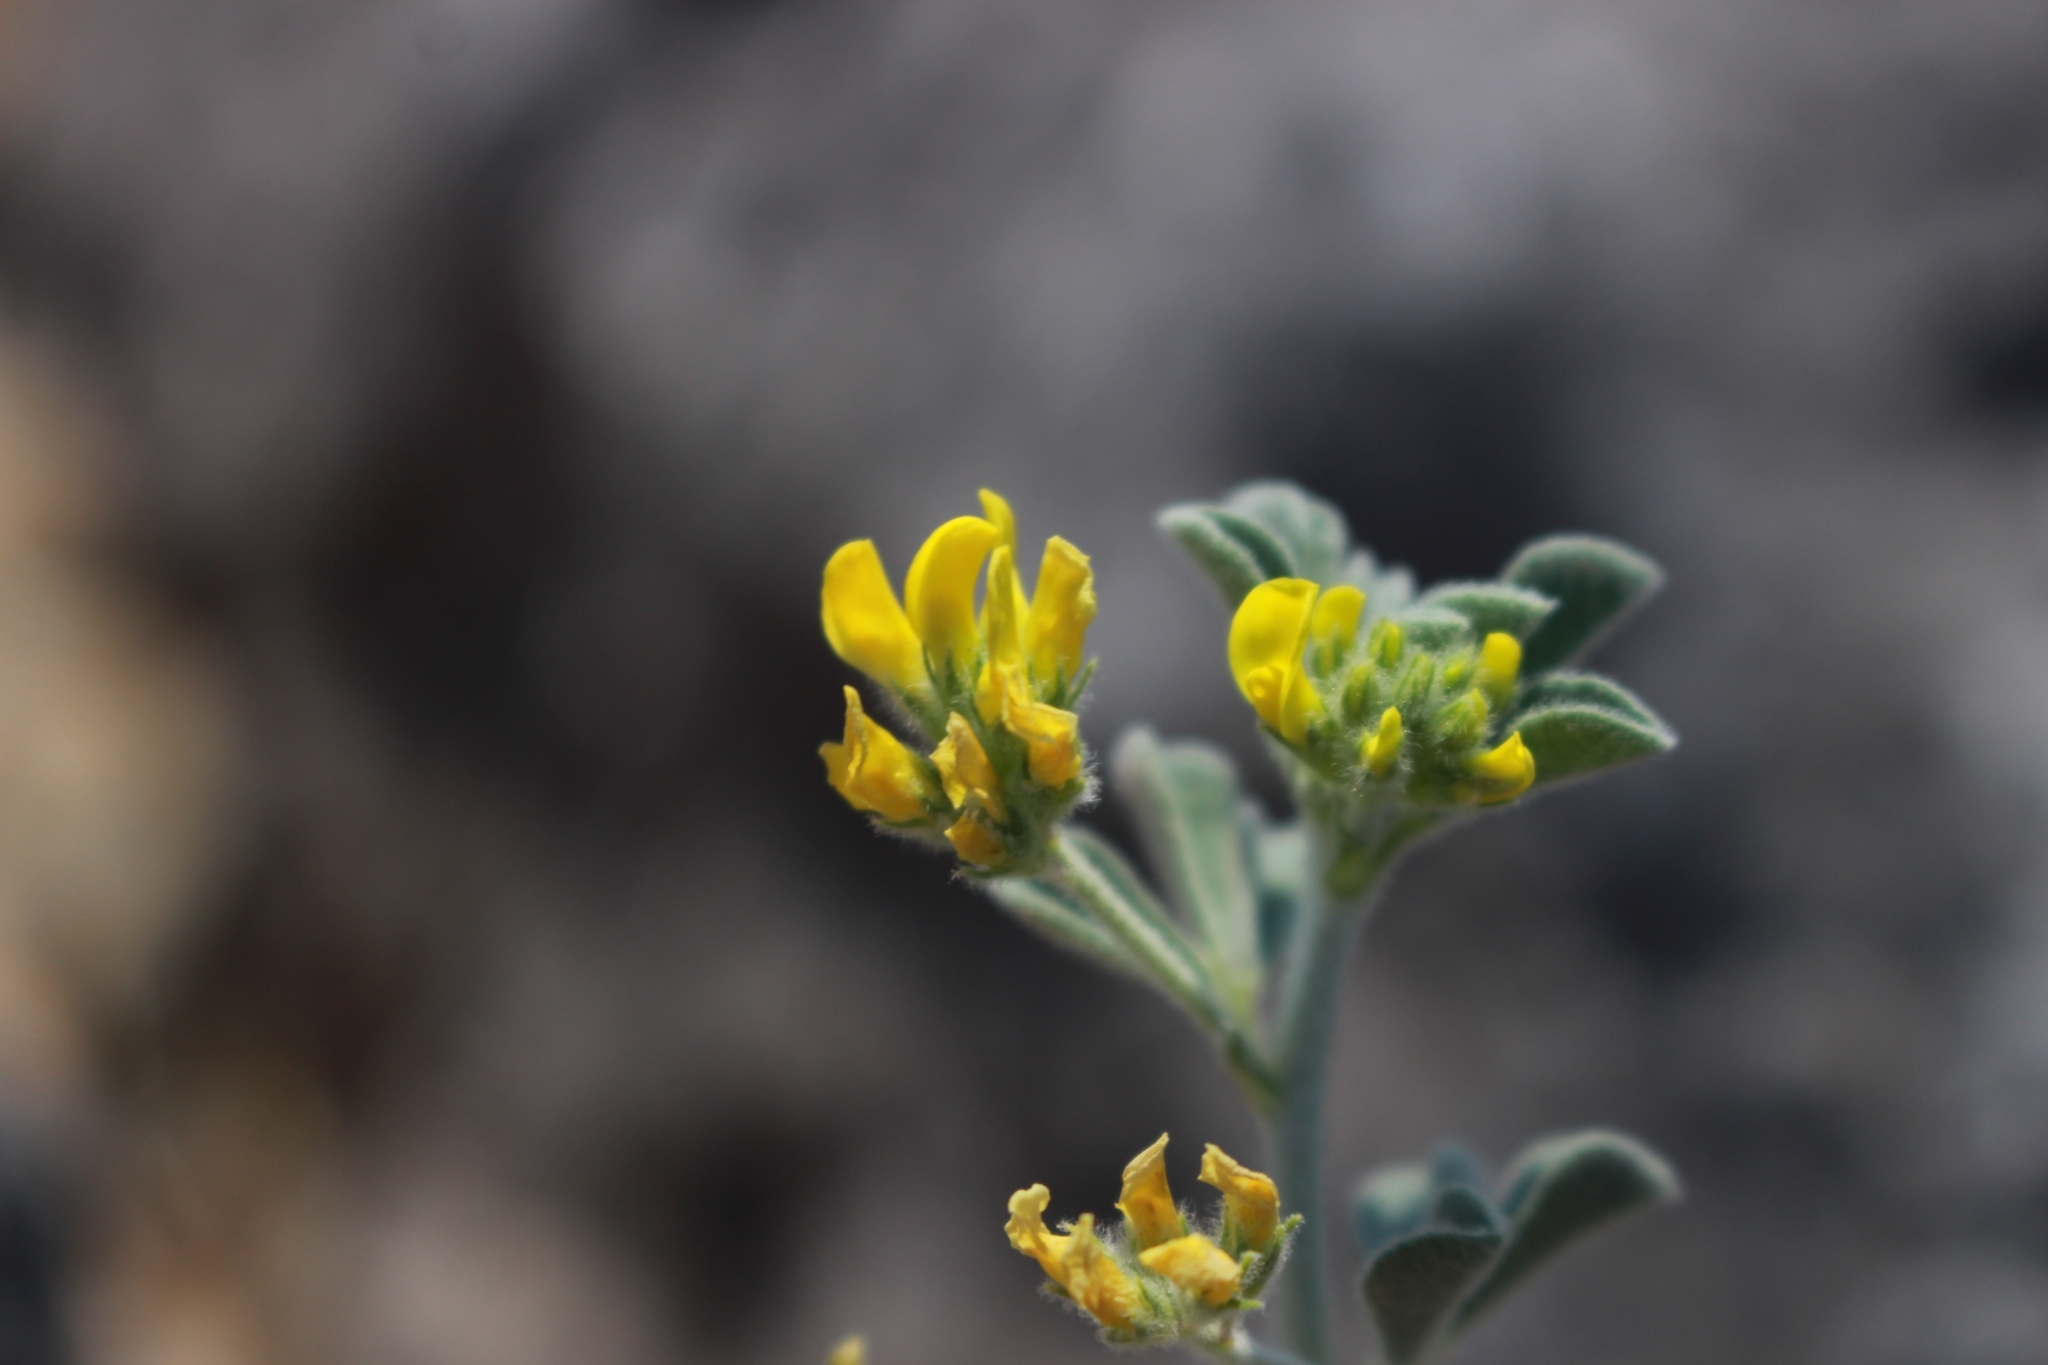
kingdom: Plantae
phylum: Tracheophyta
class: Magnoliopsida
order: Fabales
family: Fabaceae
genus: Medicago
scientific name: Medicago marina
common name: Sea medick
